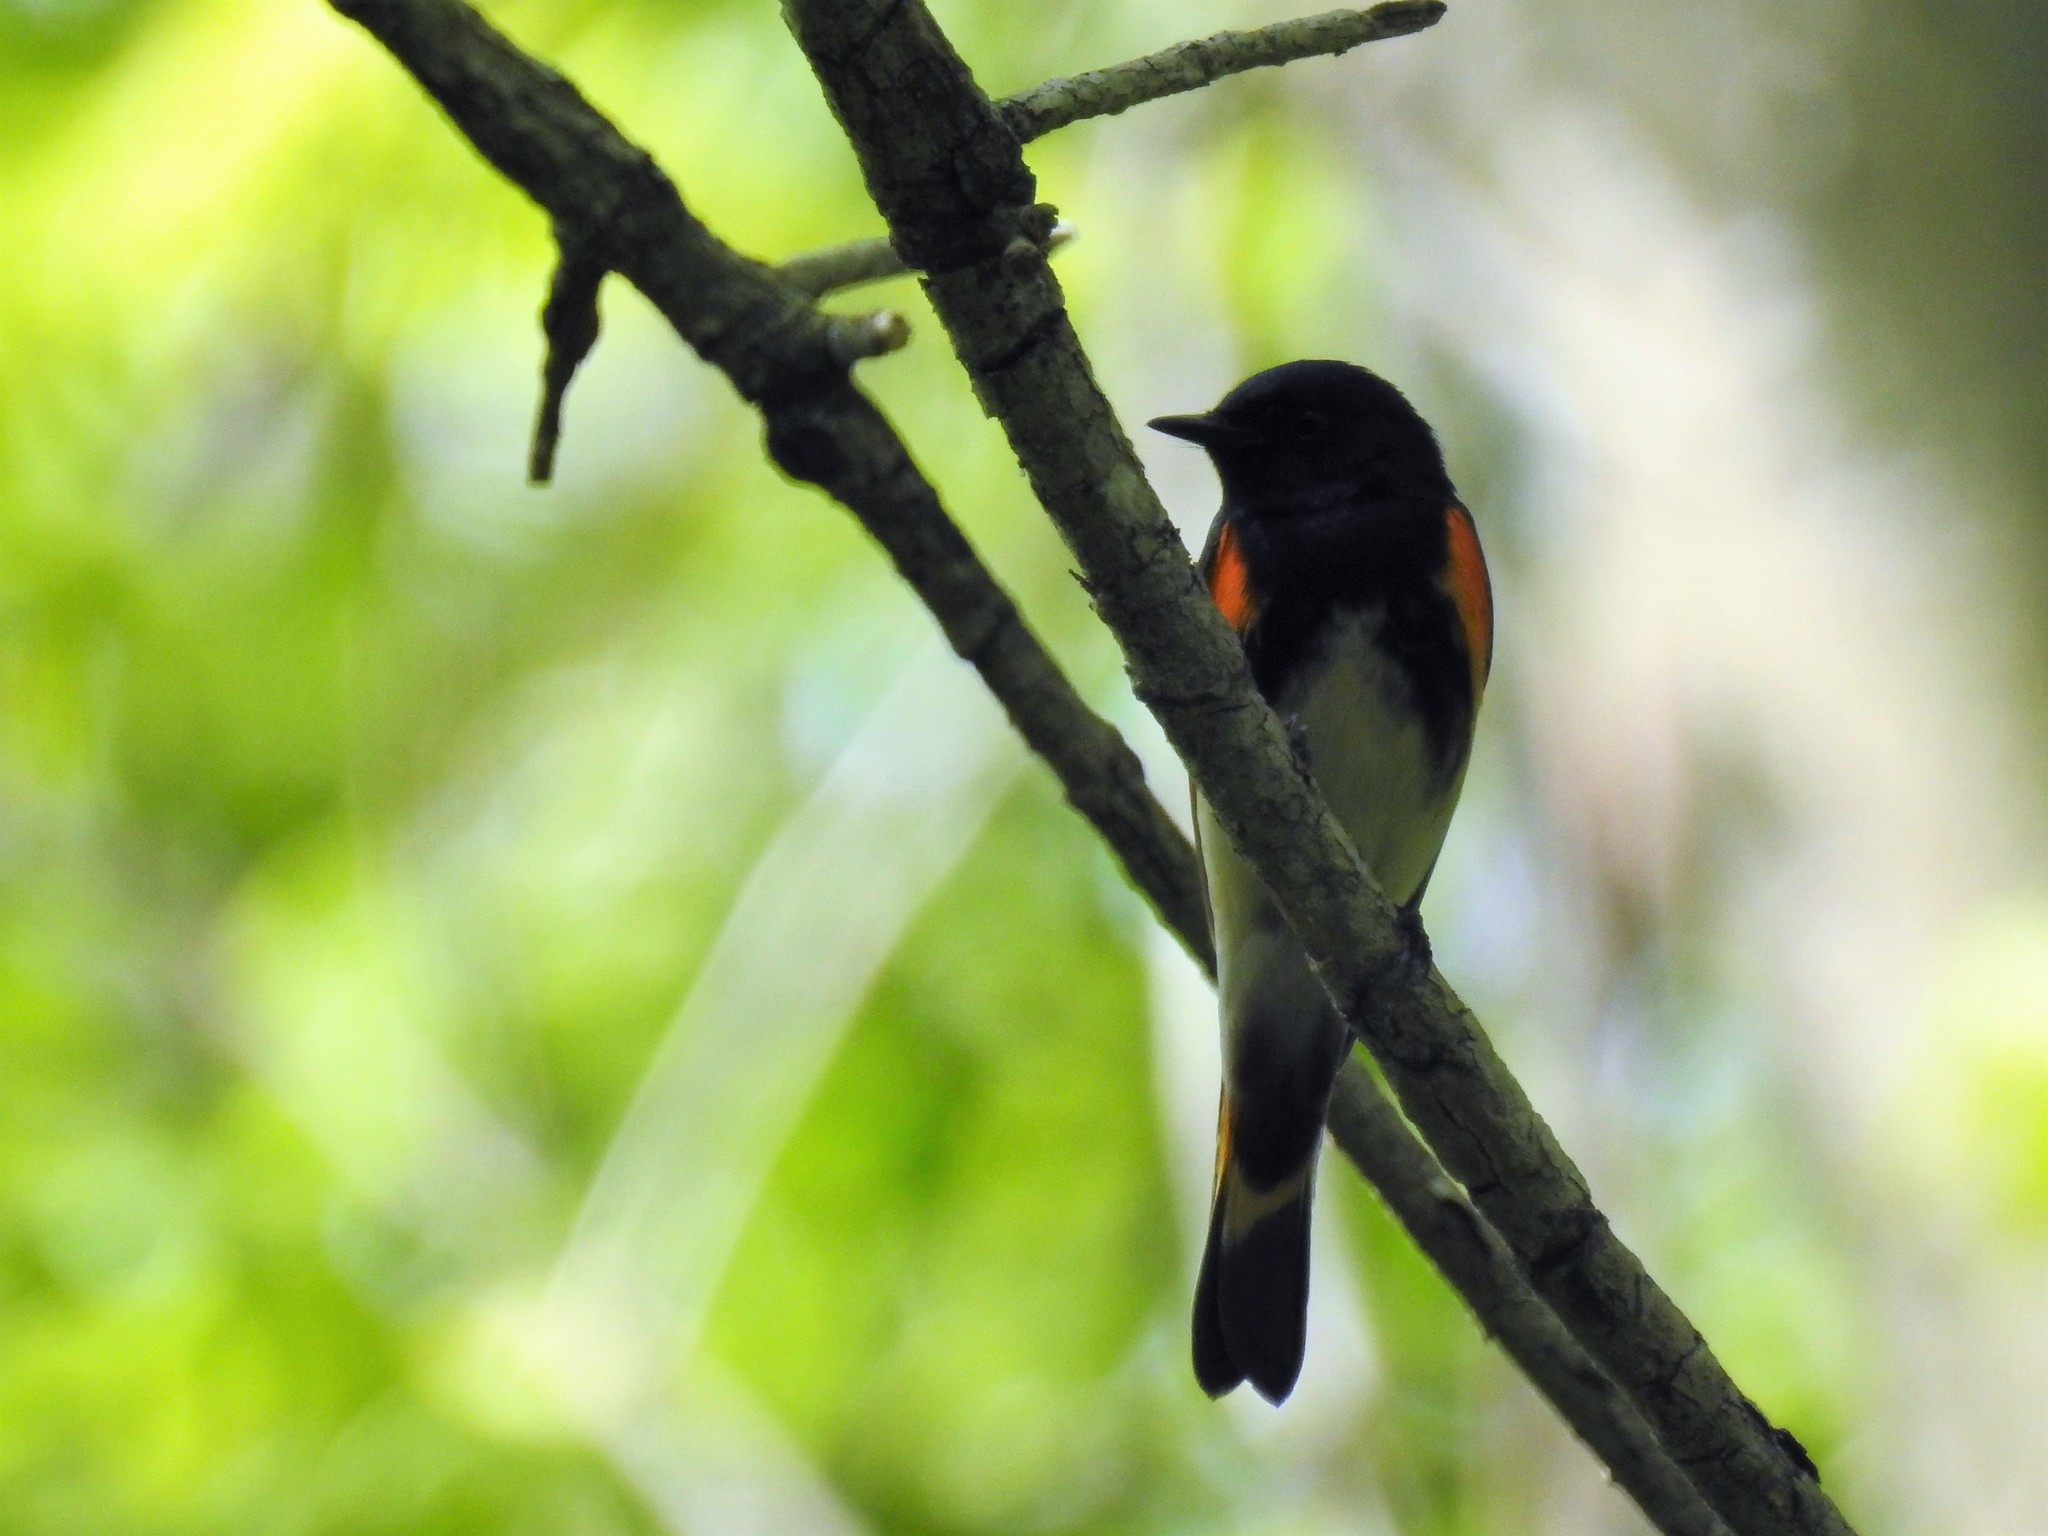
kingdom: Animalia
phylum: Chordata
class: Aves
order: Passeriformes
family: Parulidae
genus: Setophaga
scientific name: Setophaga ruticilla
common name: American redstart
